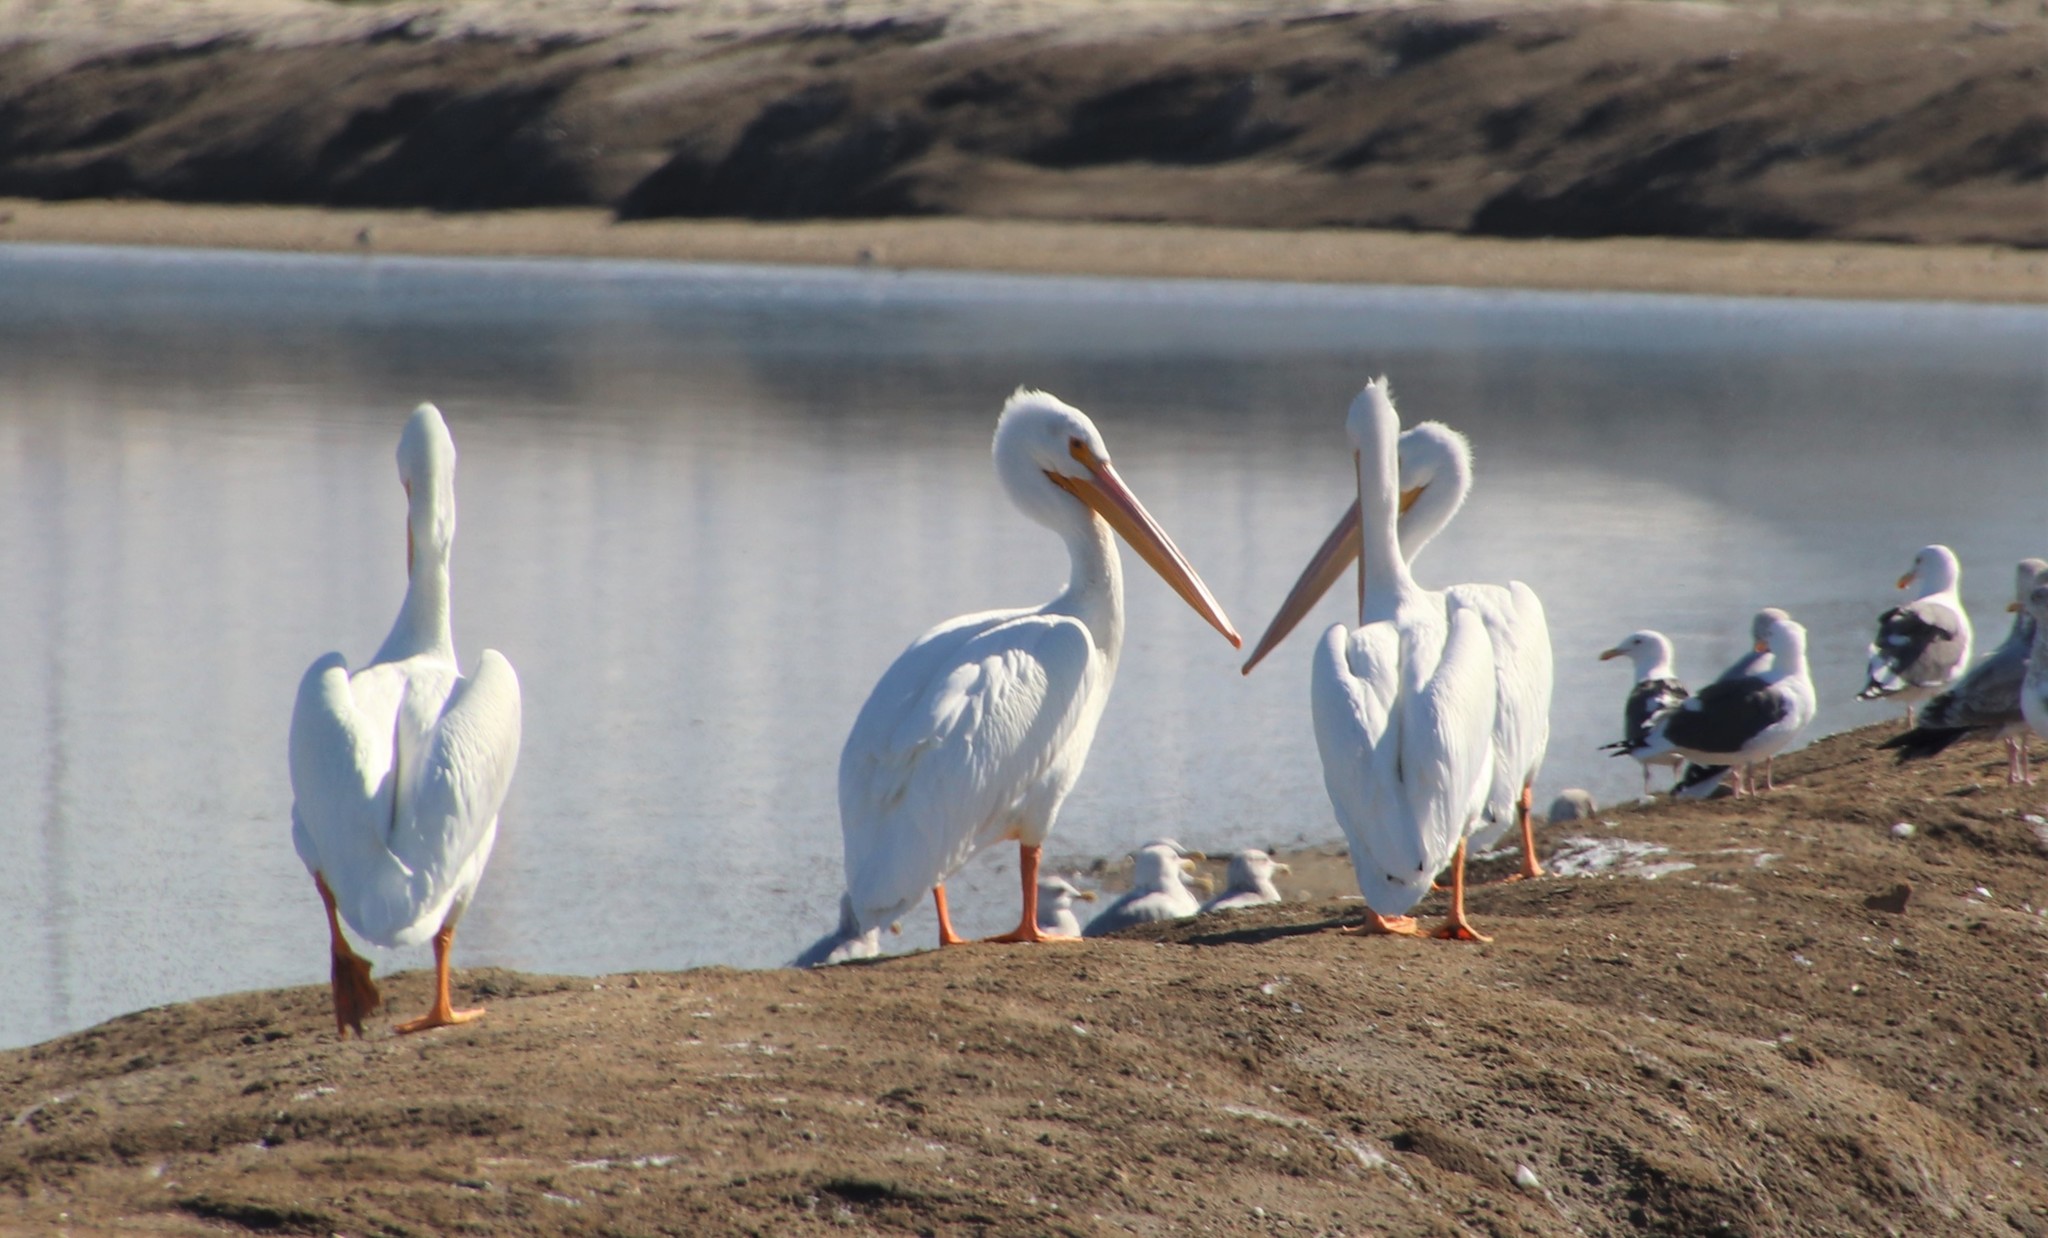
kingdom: Animalia
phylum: Chordata
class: Aves
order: Pelecaniformes
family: Pelecanidae
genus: Pelecanus
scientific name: Pelecanus erythrorhynchos
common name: American white pelican
